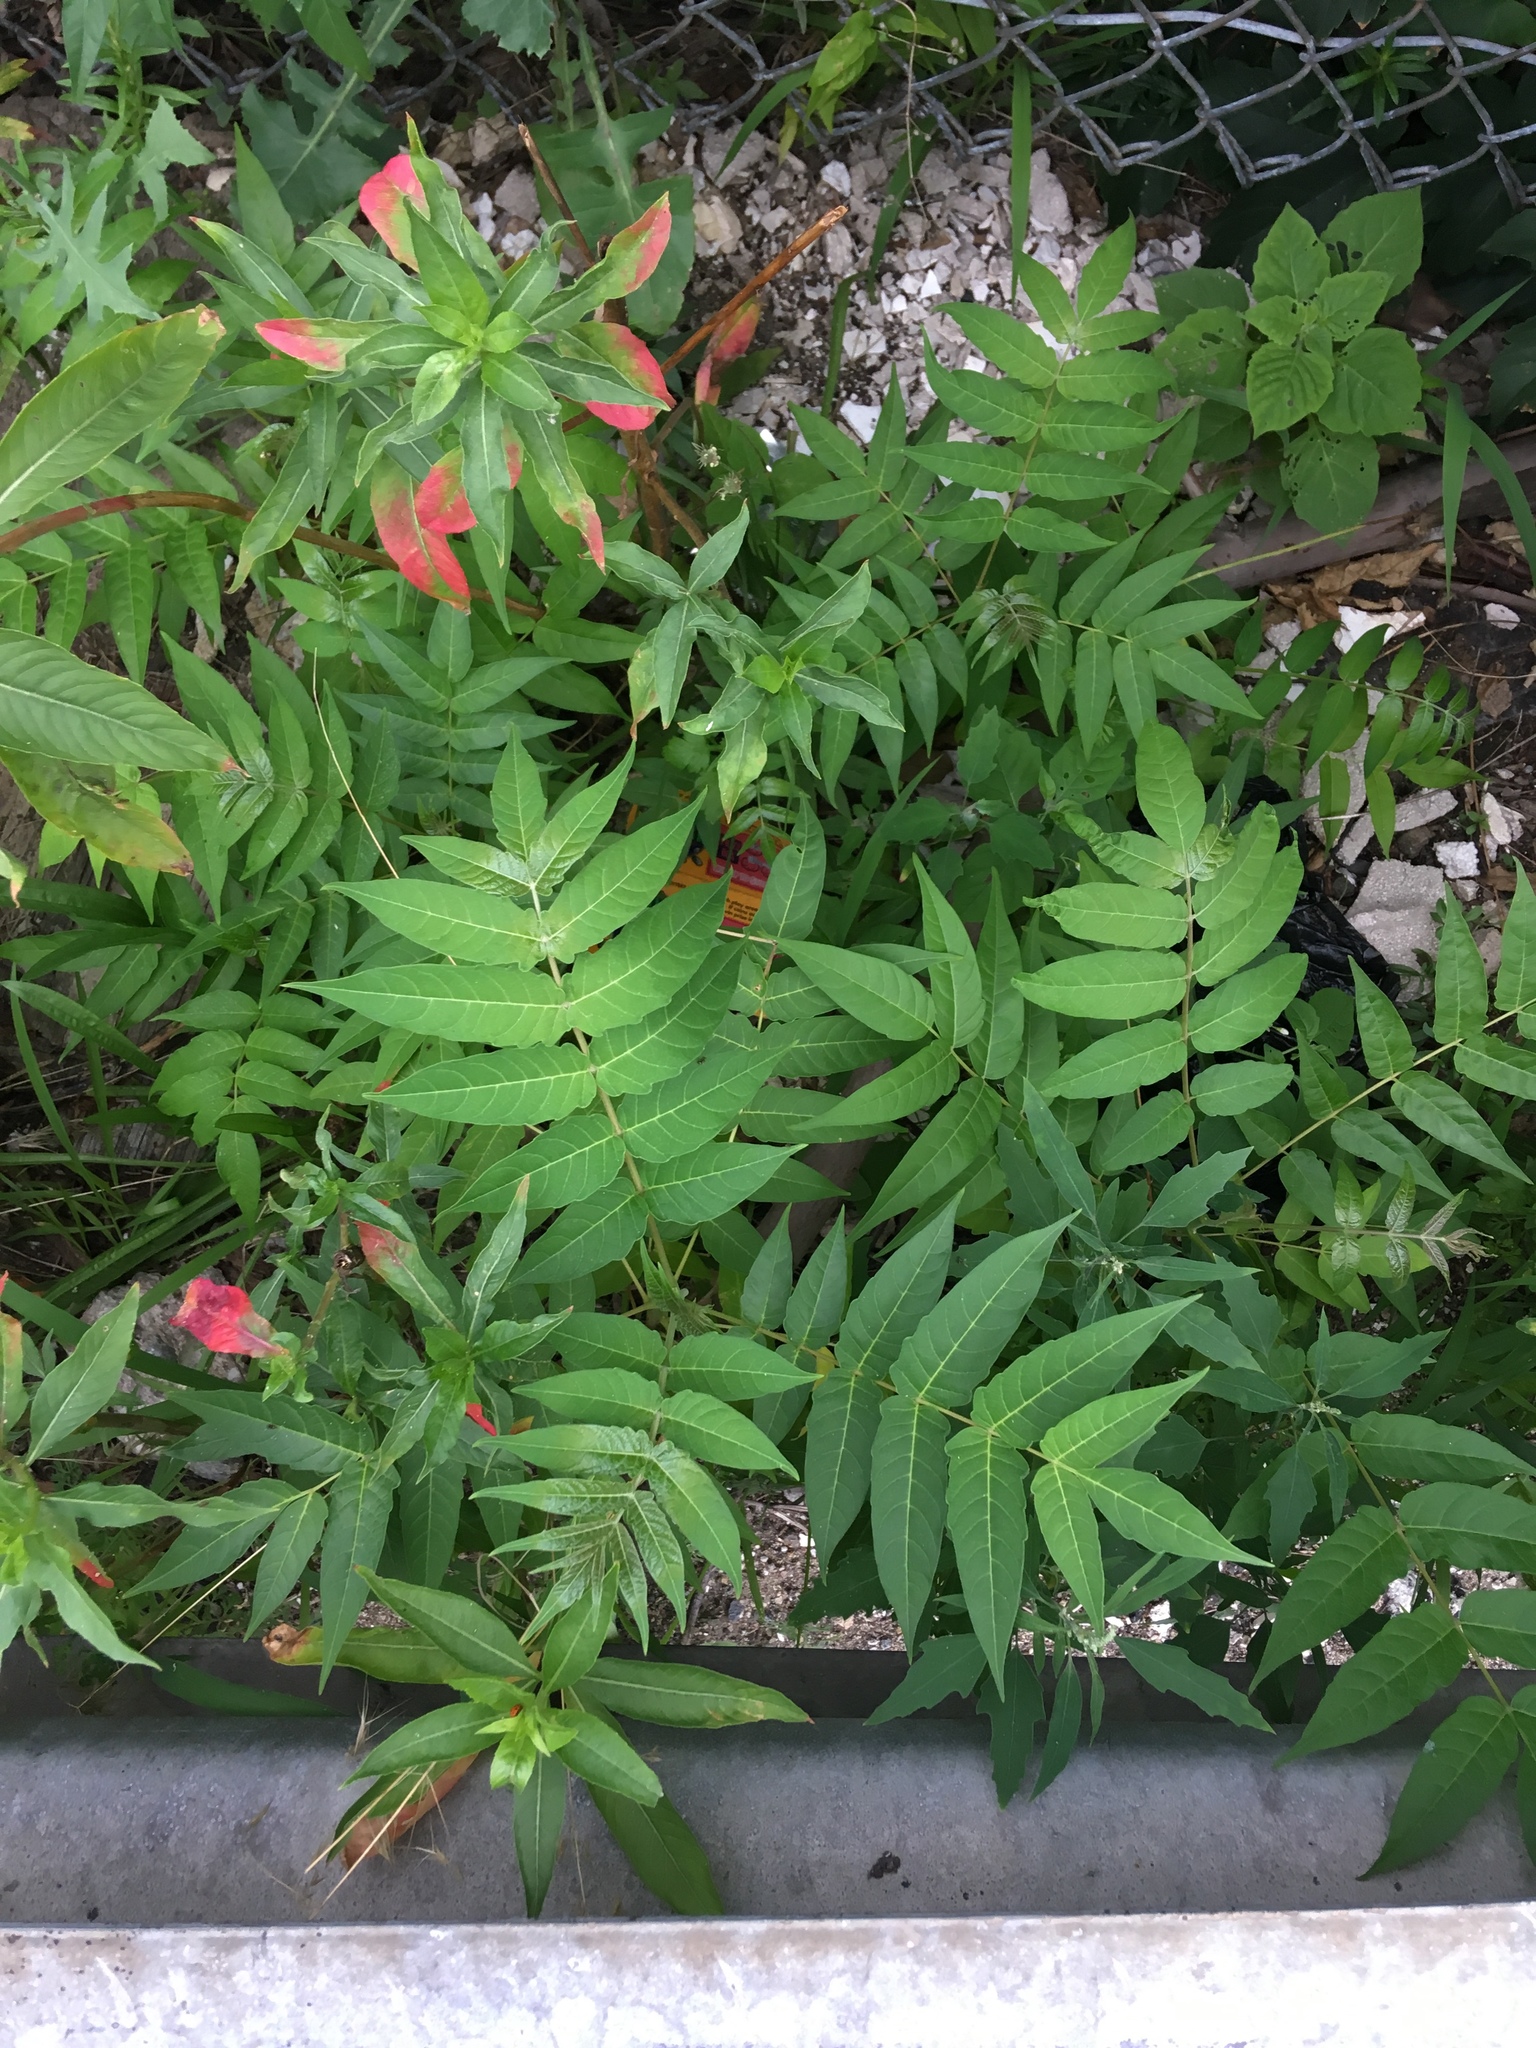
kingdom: Plantae
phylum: Tracheophyta
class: Magnoliopsida
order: Sapindales
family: Simaroubaceae
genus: Ailanthus
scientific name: Ailanthus altissima
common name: Tree-of-heaven
